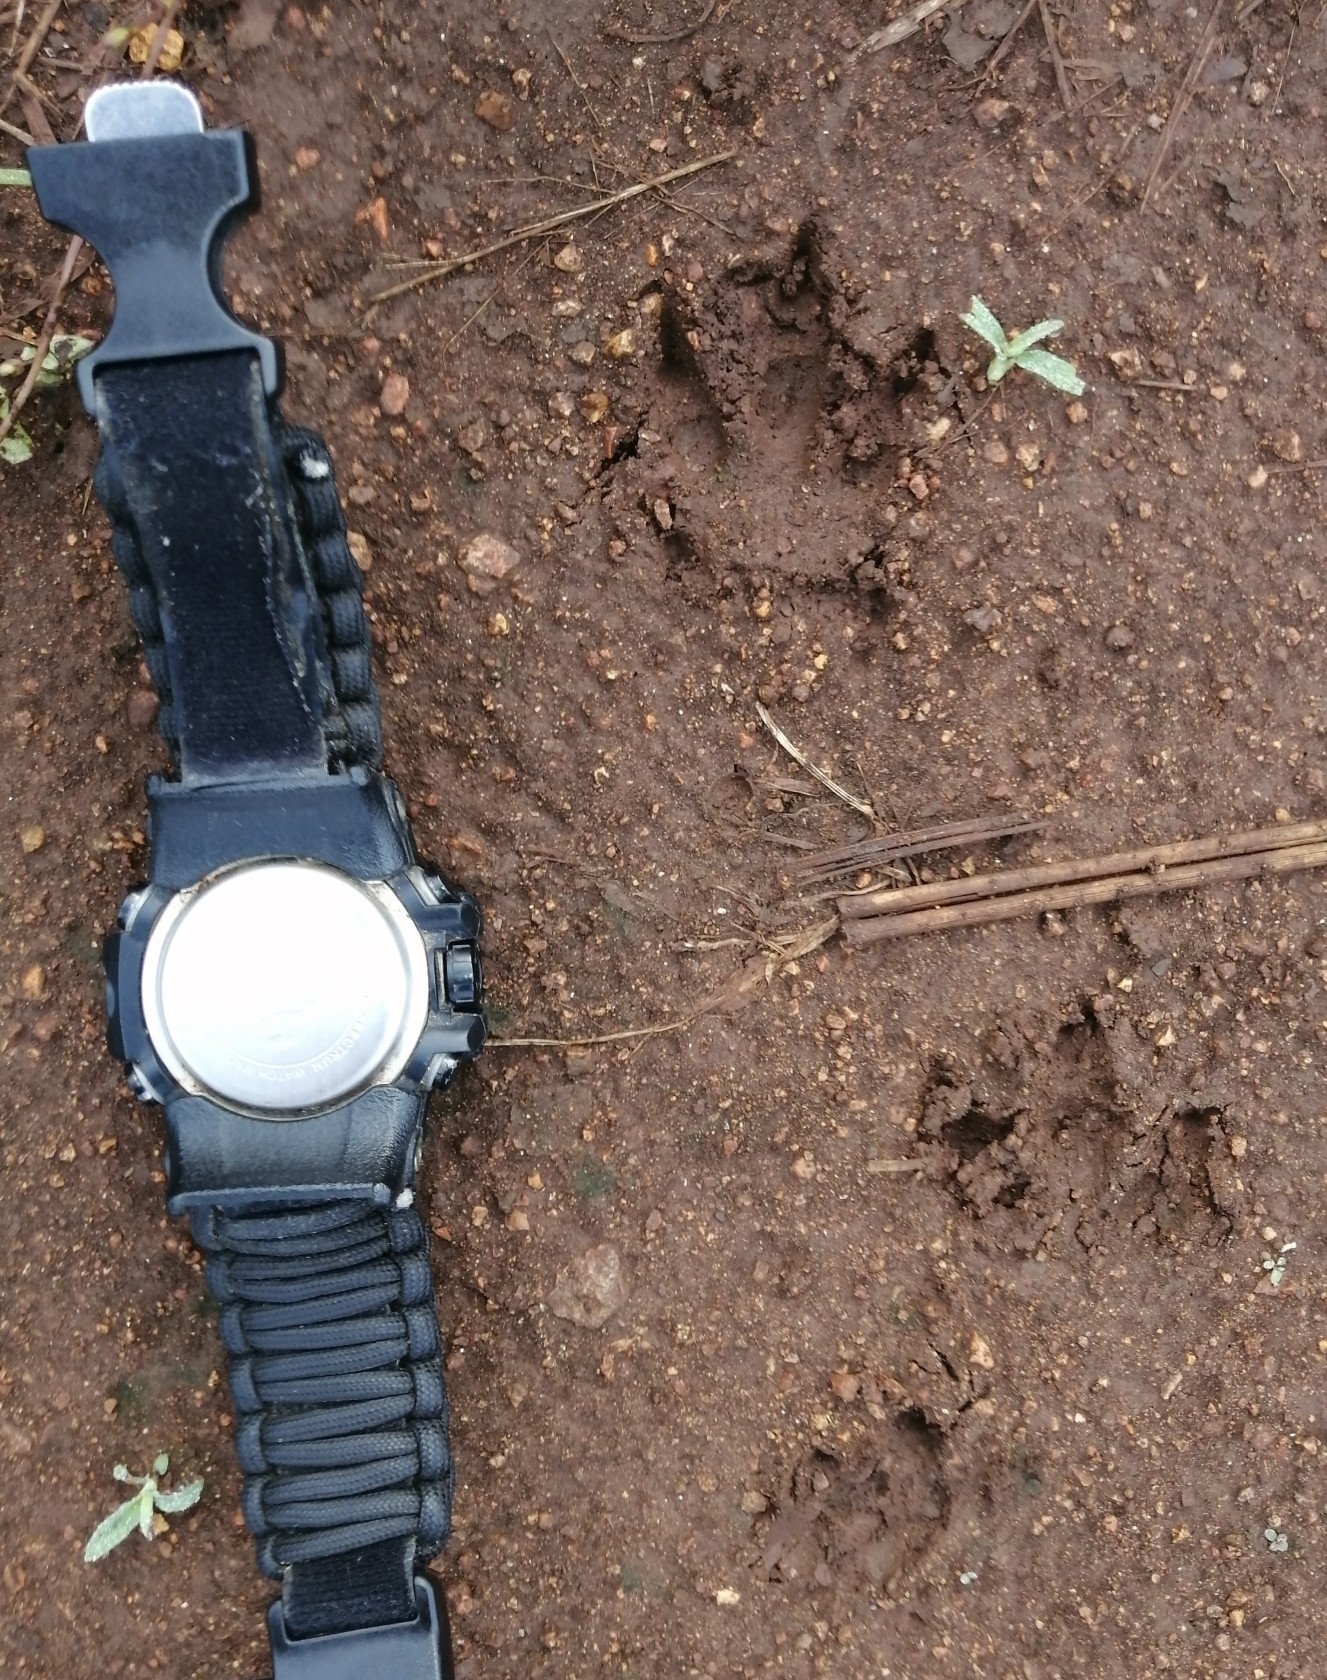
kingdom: Animalia
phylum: Chordata
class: Mammalia
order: Cingulata
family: Dasypodidae
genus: Dasypus
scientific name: Dasypus novemcinctus
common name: Nine-banded armadillo
